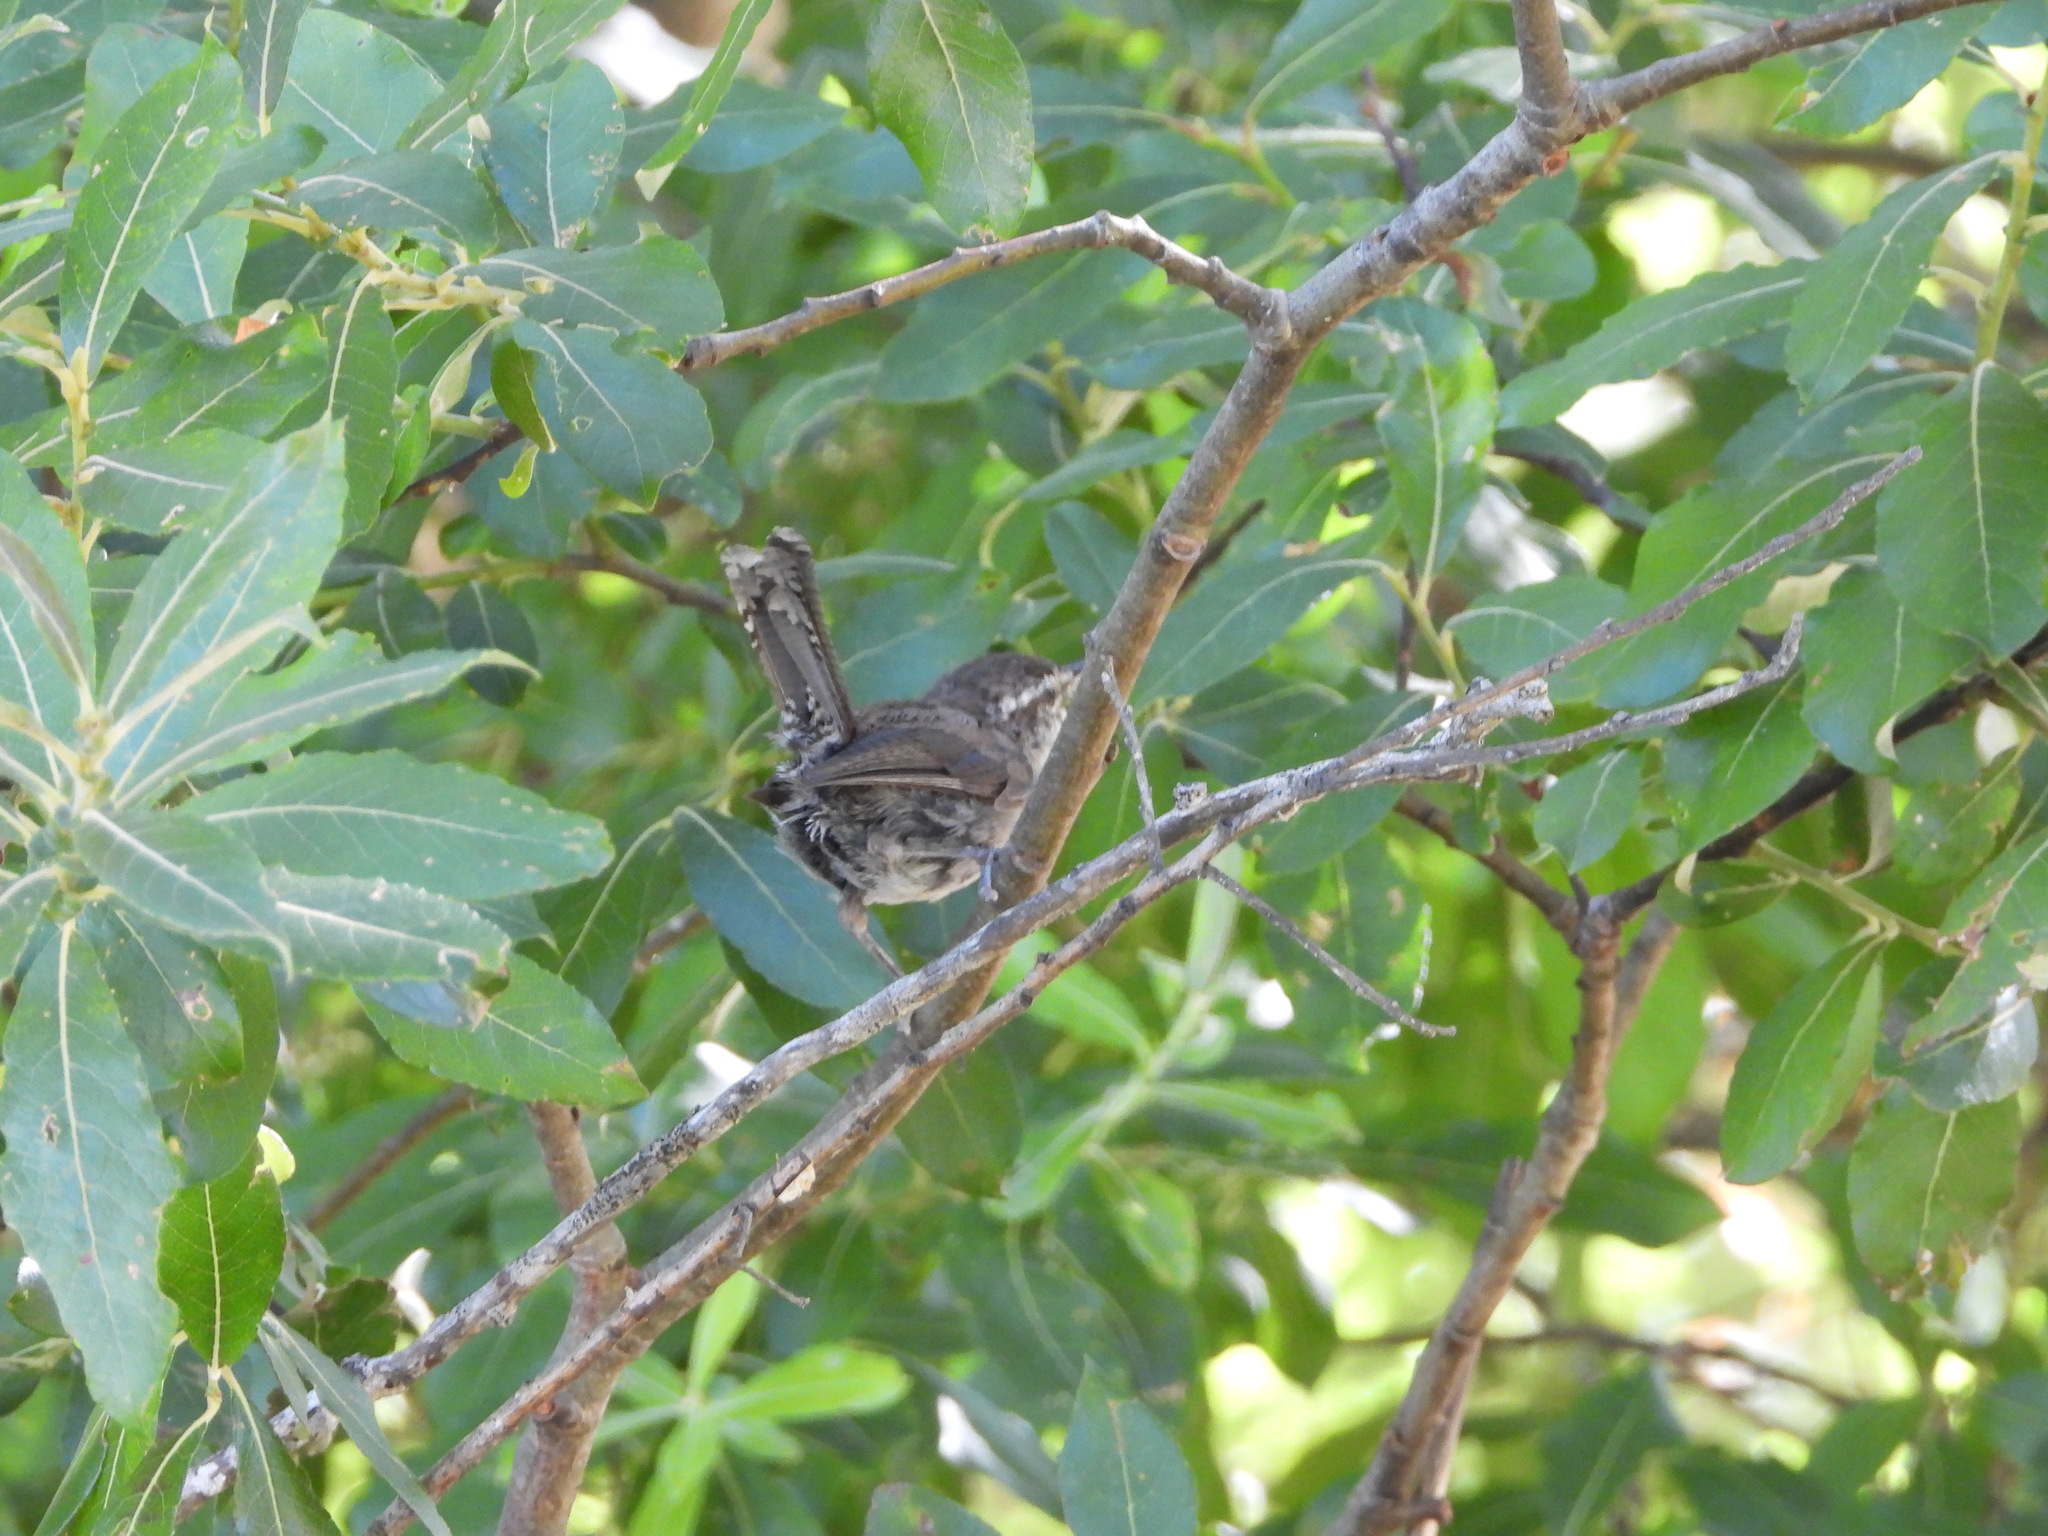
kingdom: Animalia
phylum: Chordata
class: Aves
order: Passeriformes
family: Troglodytidae
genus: Thryomanes
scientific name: Thryomanes bewickii
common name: Bewick's wren
